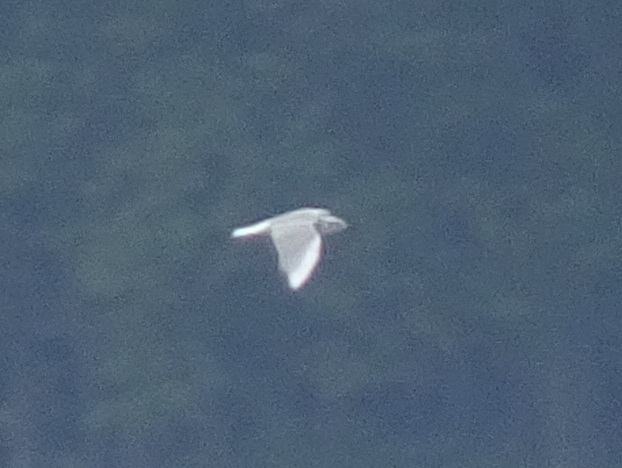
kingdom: Animalia
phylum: Chordata
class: Aves
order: Charadriiformes
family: Laridae
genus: Chroicocephalus
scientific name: Chroicocephalus philadelphia
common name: Bonaparte's gull
